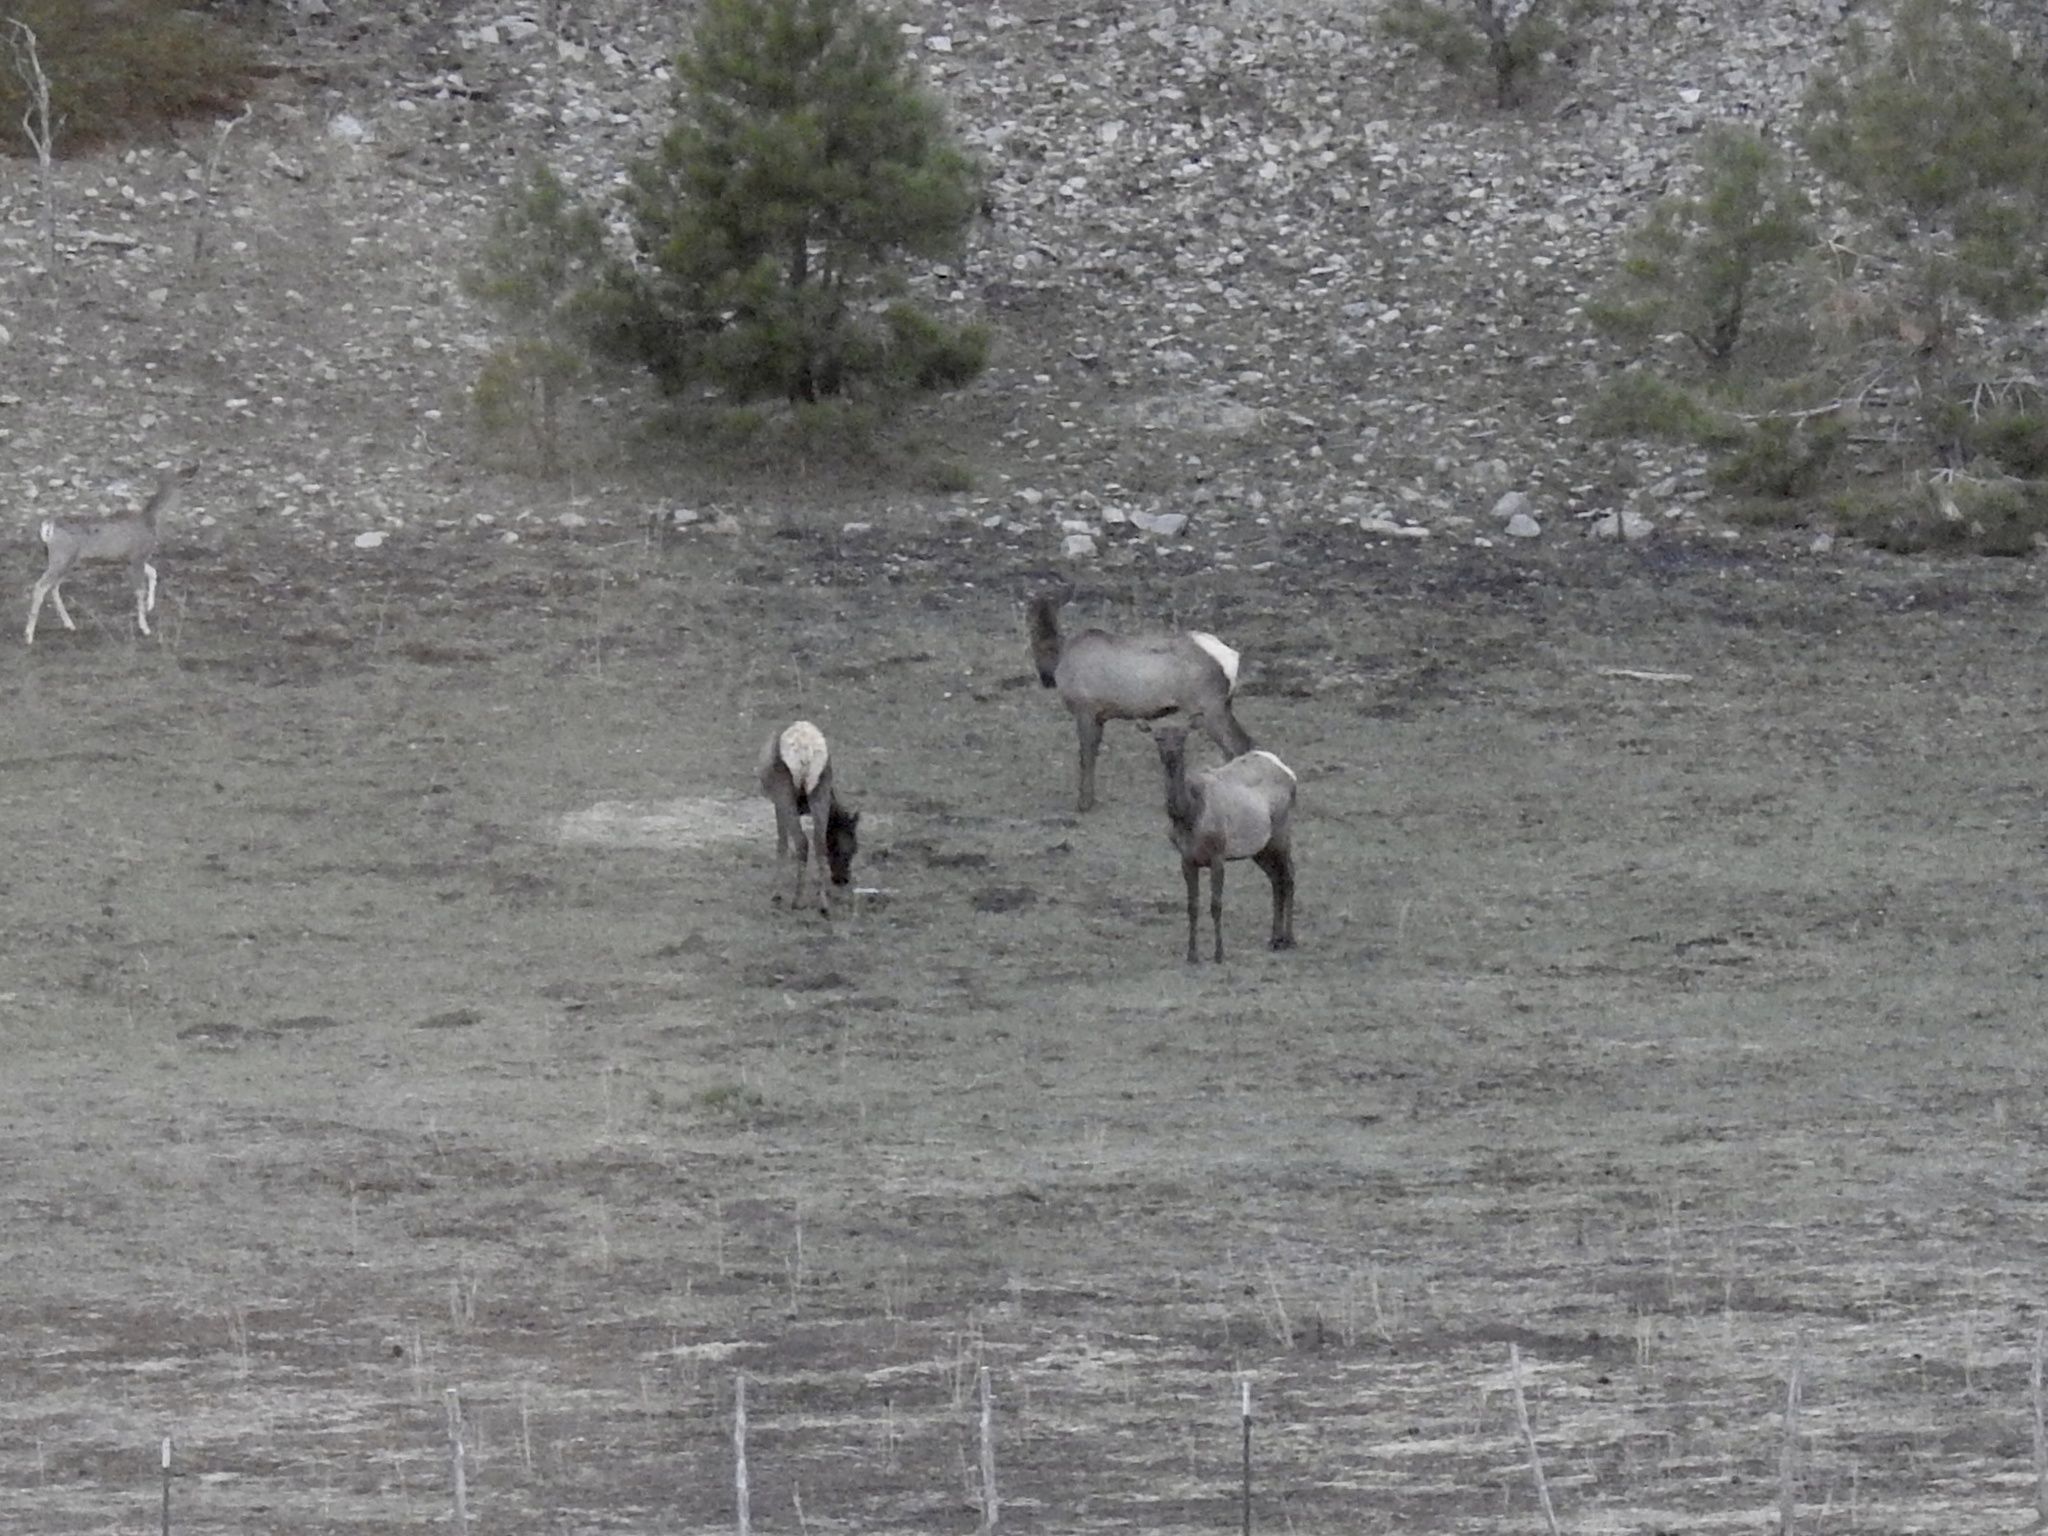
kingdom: Animalia
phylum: Chordata
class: Mammalia
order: Artiodactyla
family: Cervidae
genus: Cervus
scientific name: Cervus elaphus
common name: Red deer
